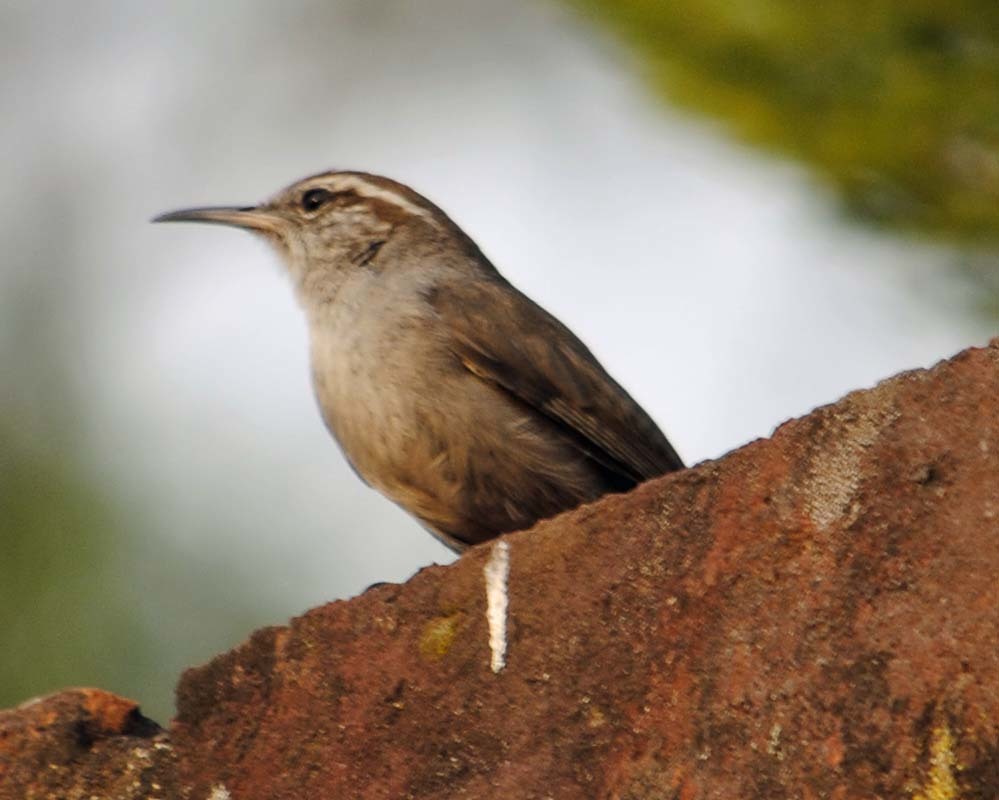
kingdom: Animalia
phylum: Chordata
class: Aves
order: Passeriformes
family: Troglodytidae
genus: Thryomanes
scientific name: Thryomanes bewickii
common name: Bewick's wren
